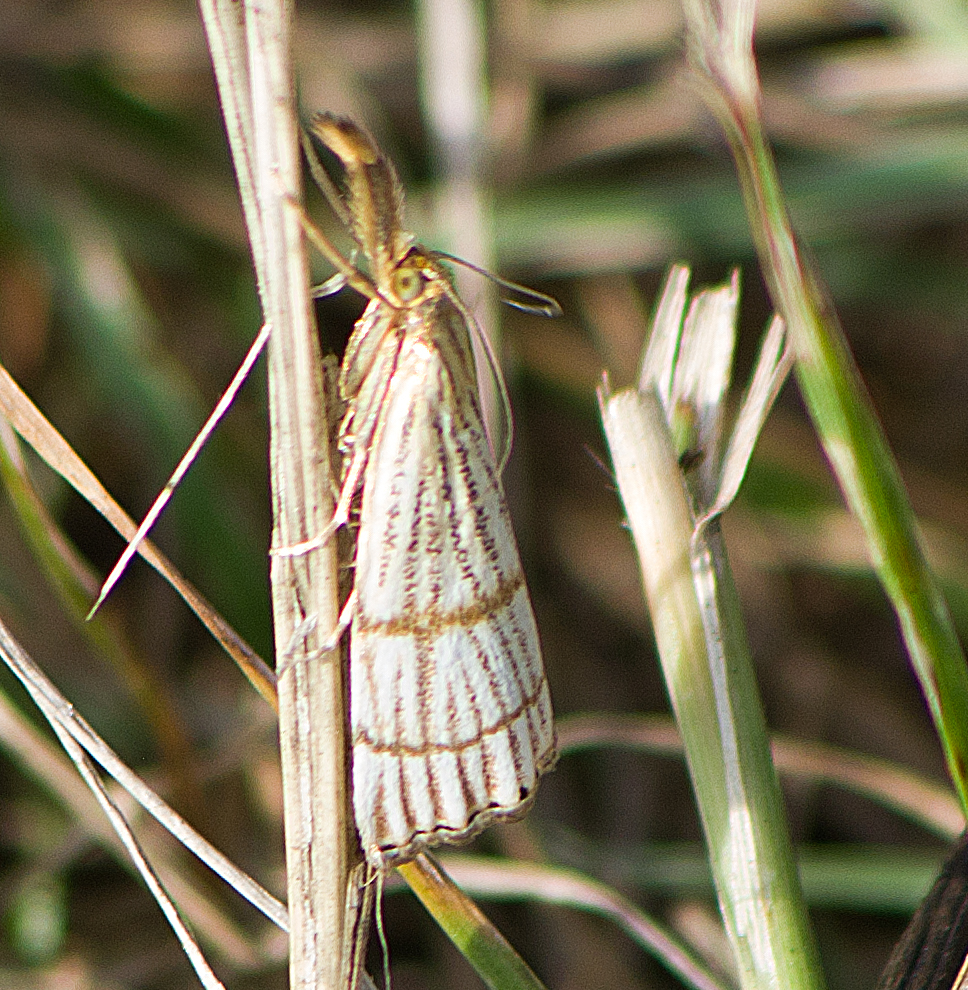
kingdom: Animalia
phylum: Arthropoda
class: Insecta
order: Lepidoptera
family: Crambidae
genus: Chrysocrambus
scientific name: Chrysocrambus linetella
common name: Orange-bar grass-veneer
